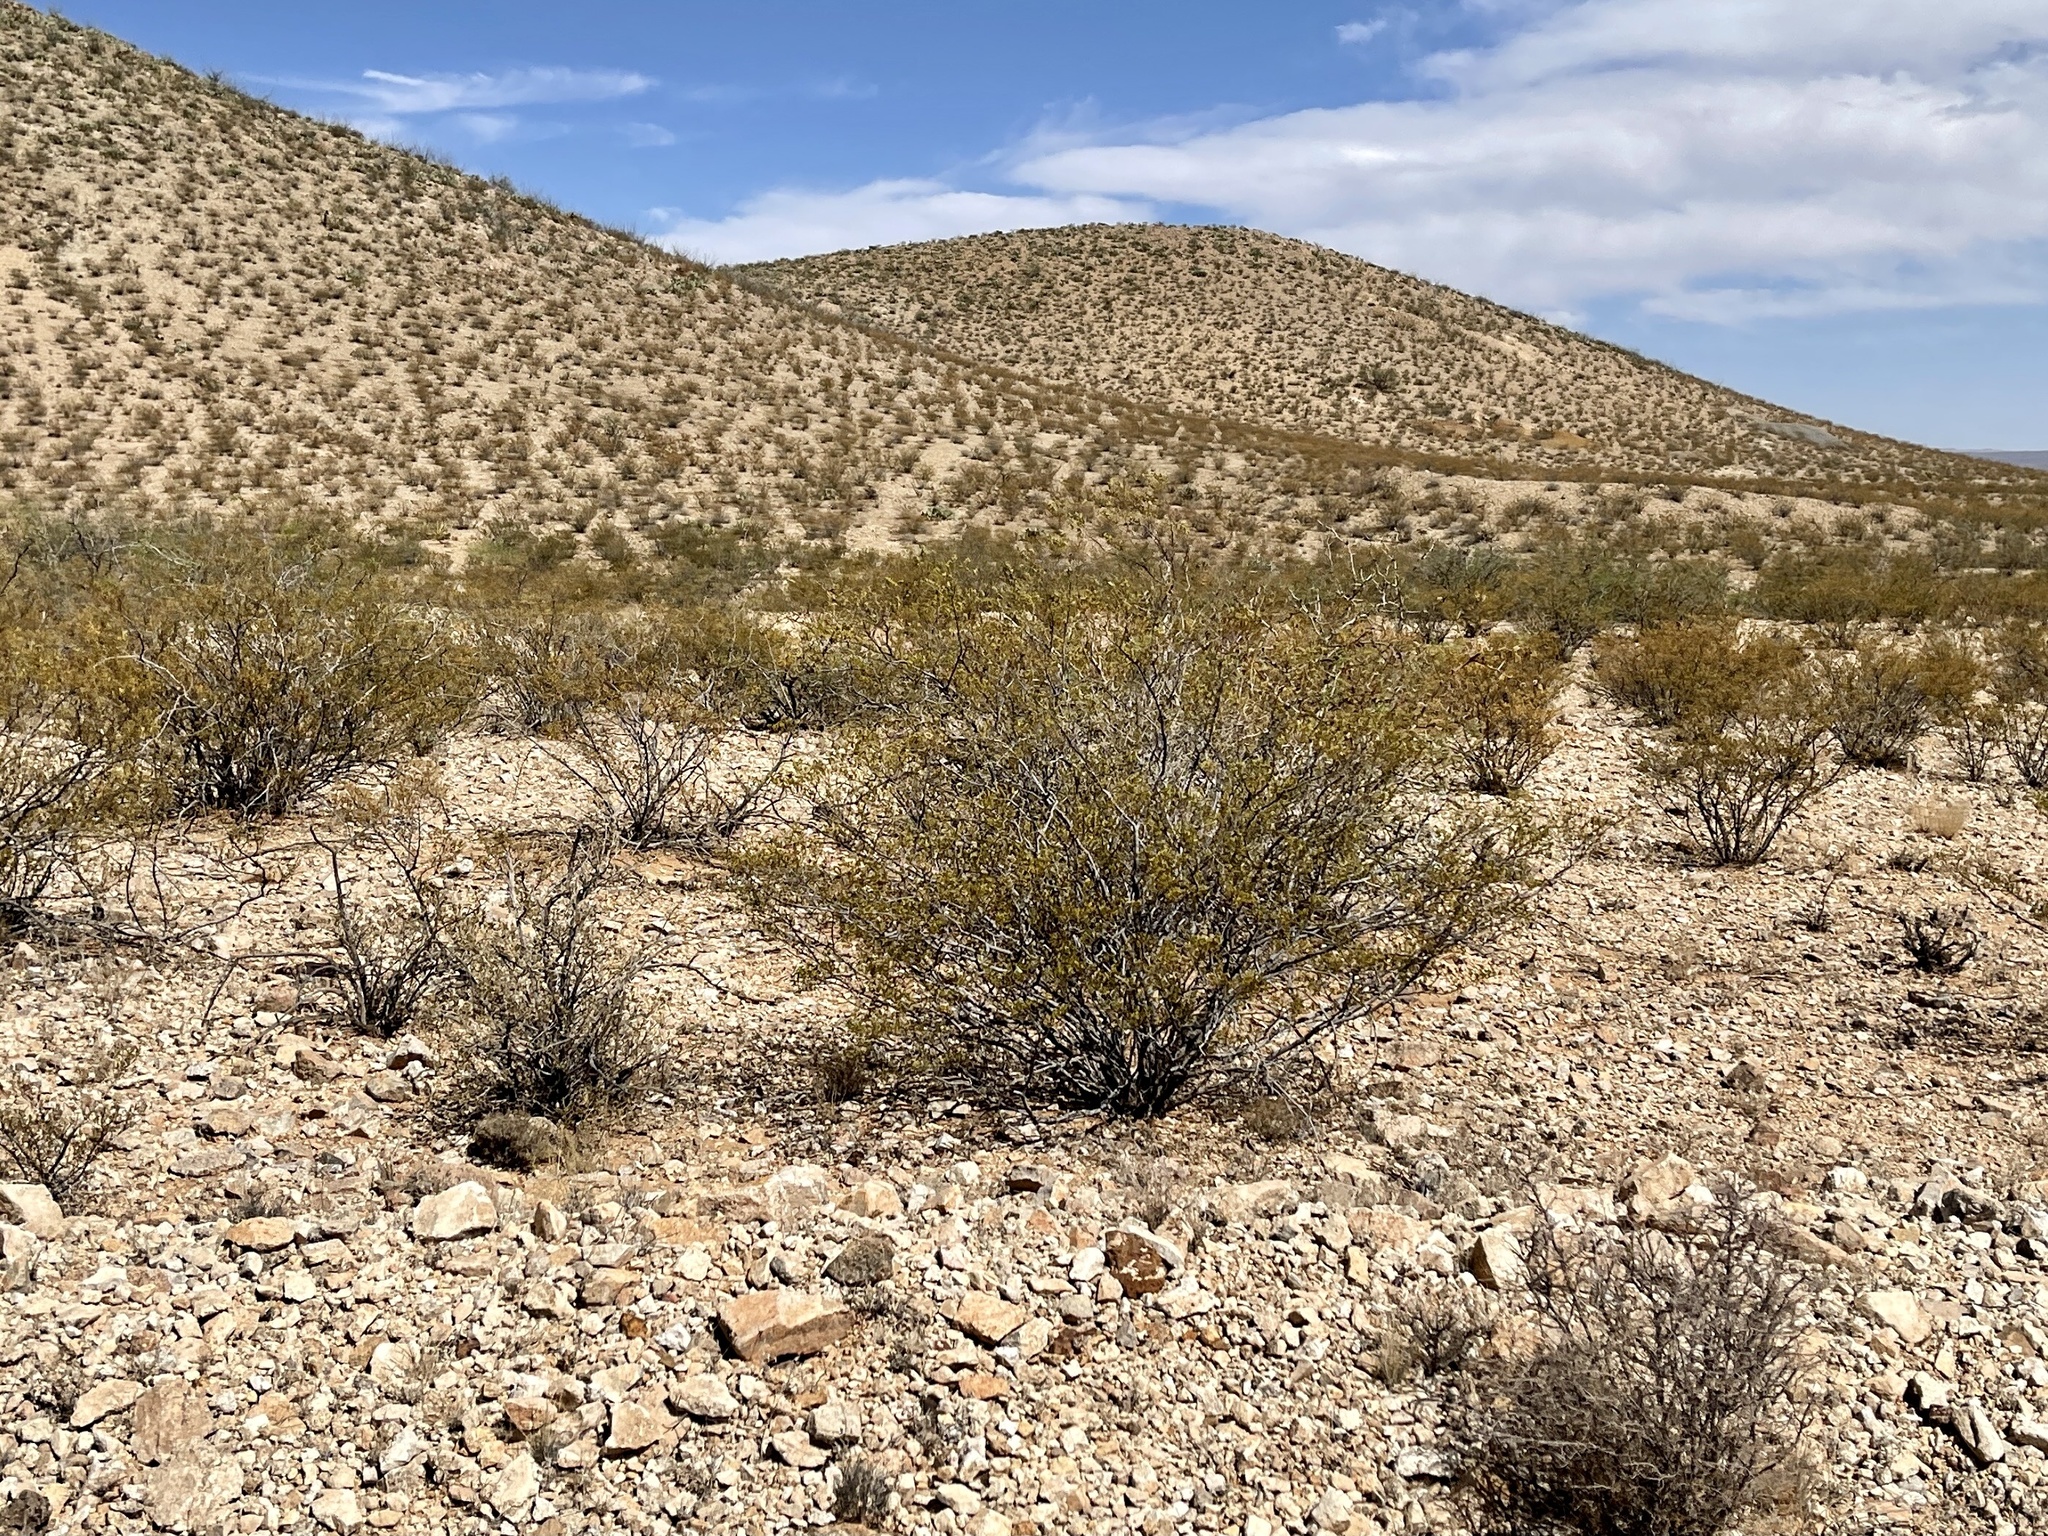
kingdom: Plantae
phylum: Tracheophyta
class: Magnoliopsida
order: Zygophyllales
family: Zygophyllaceae
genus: Larrea
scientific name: Larrea tridentata
